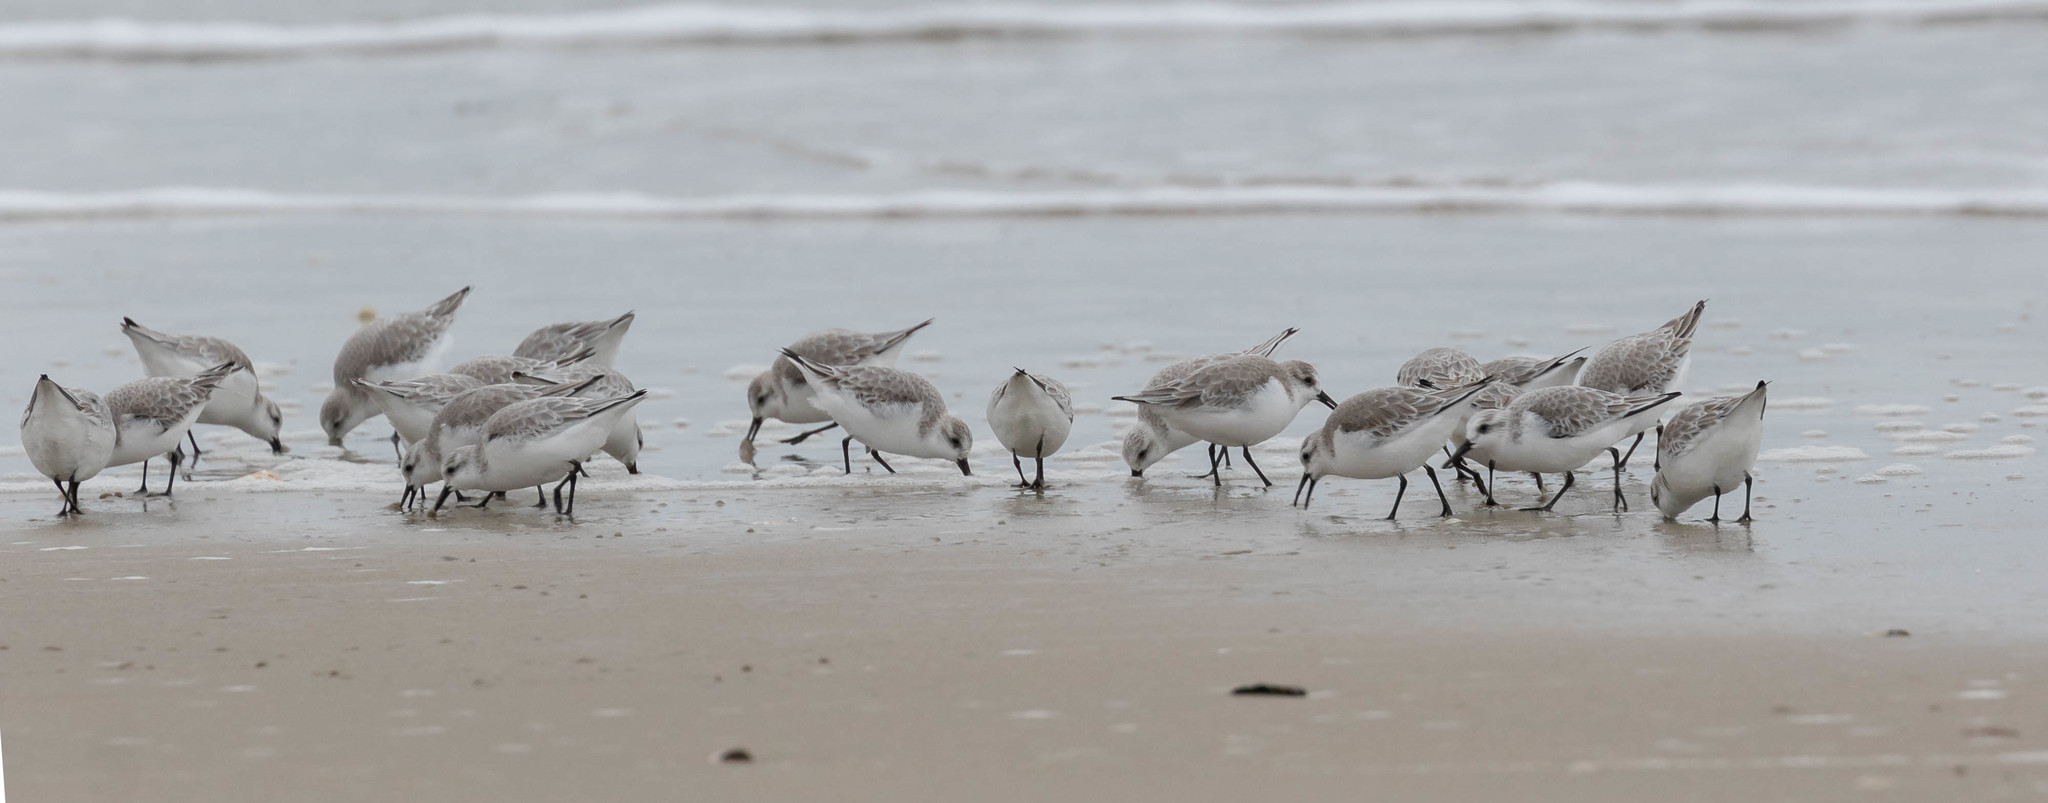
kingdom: Animalia
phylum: Chordata
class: Aves
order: Charadriiformes
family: Scolopacidae
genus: Calidris
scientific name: Calidris alba
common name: Sanderling
